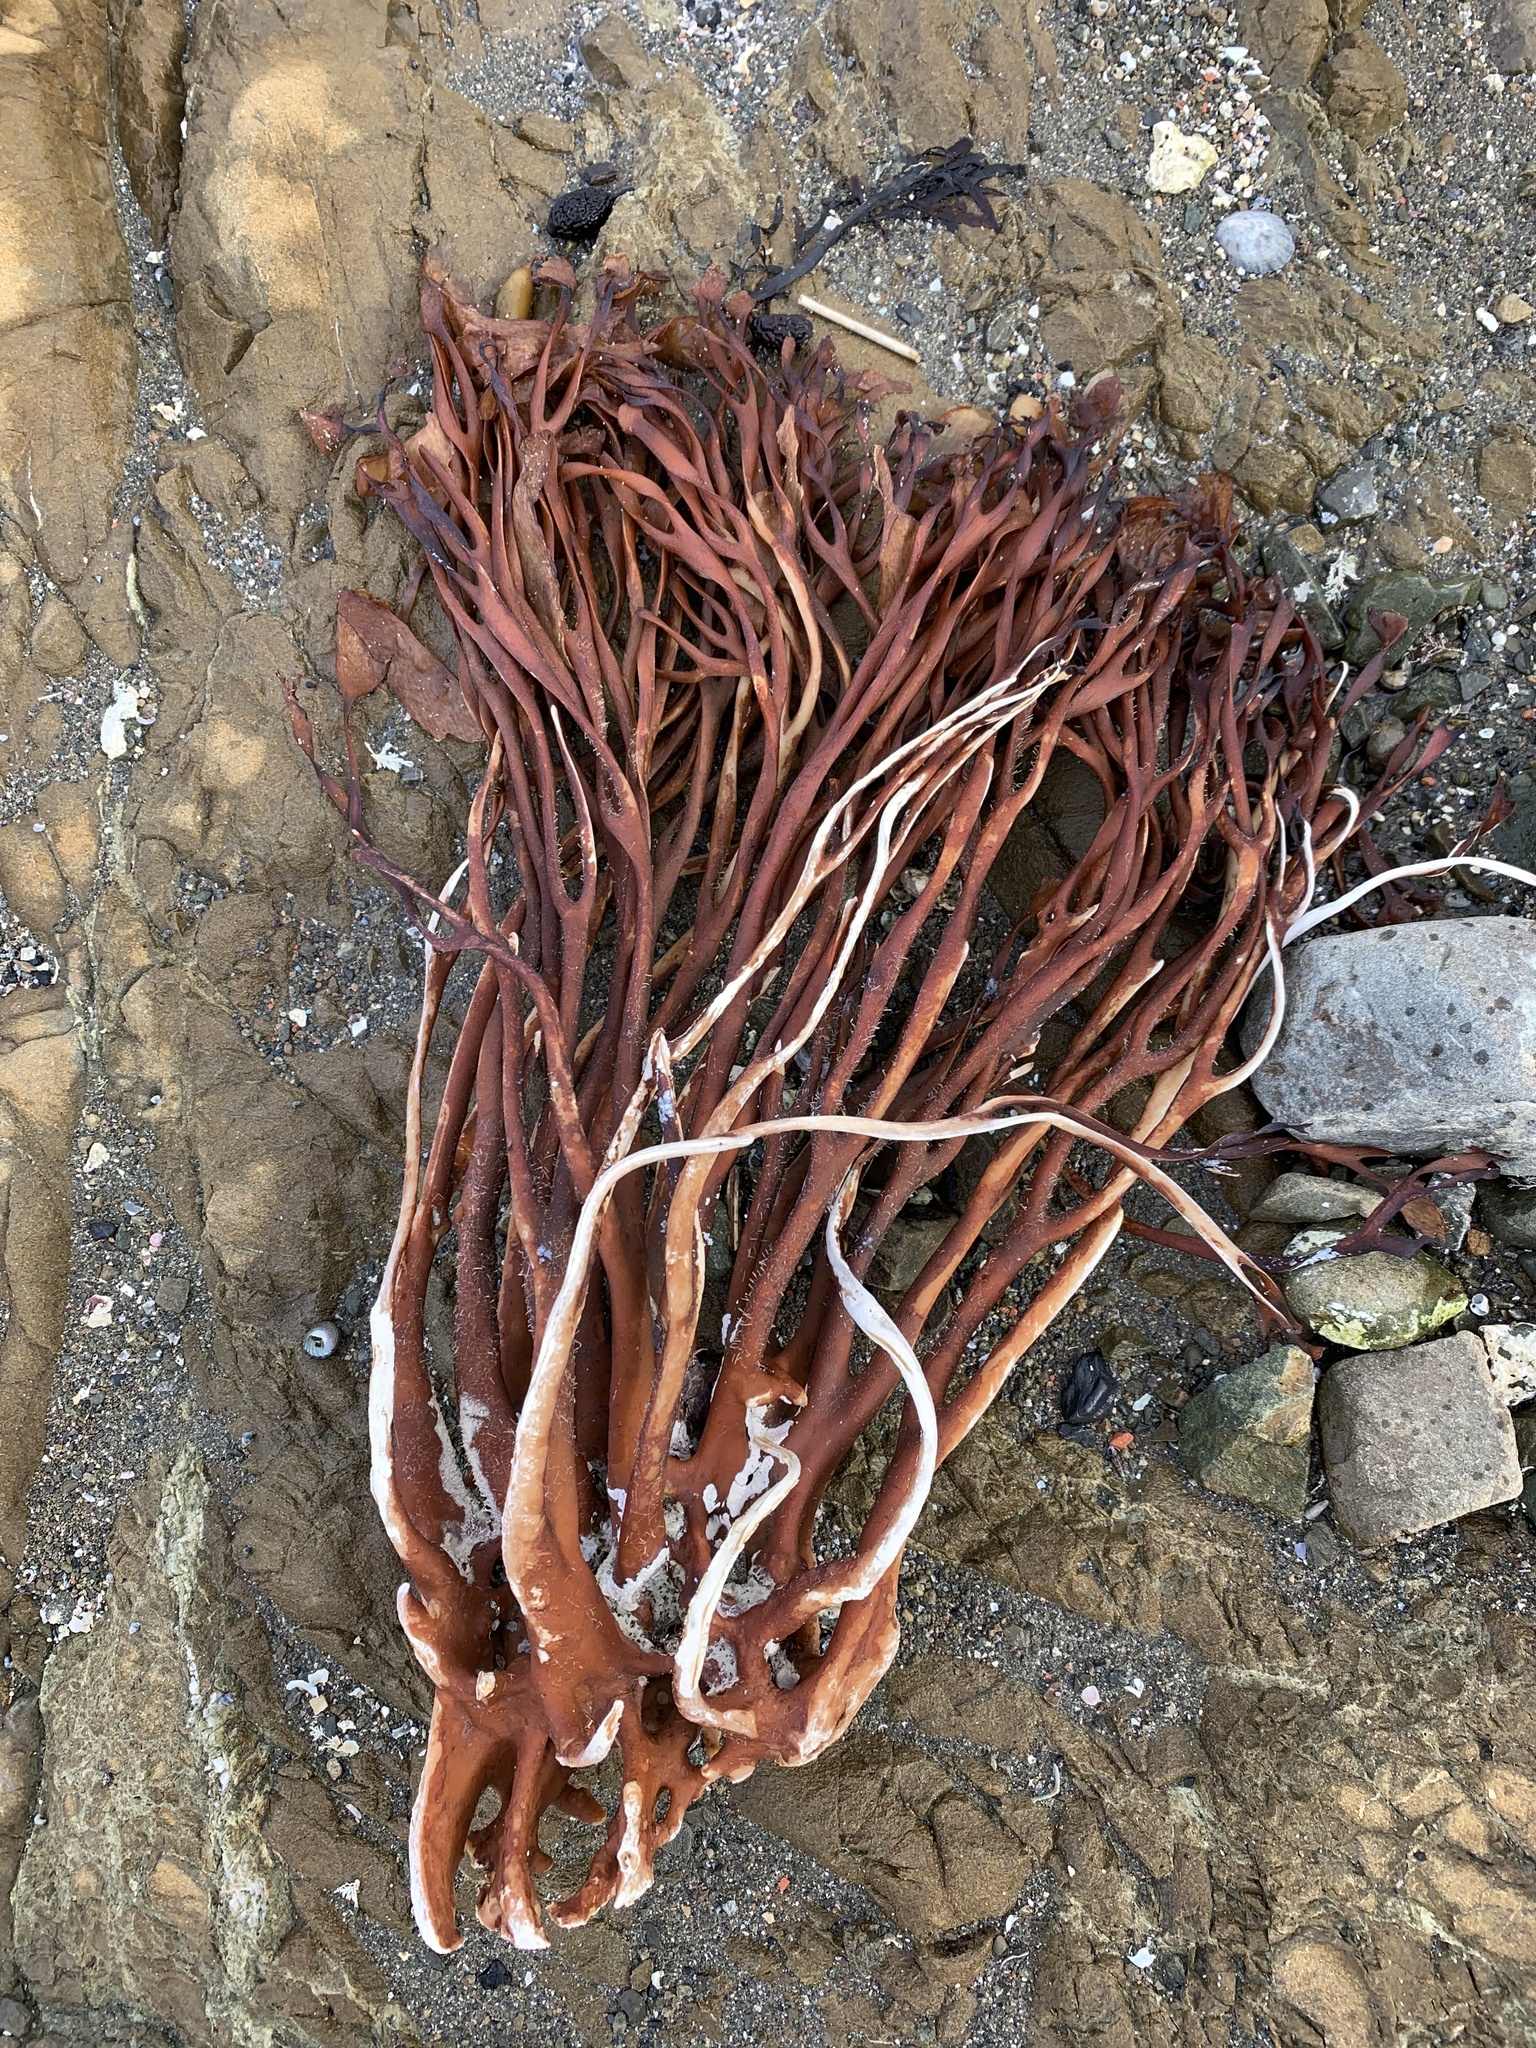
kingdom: Chromista
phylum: Ochrophyta
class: Phaeophyceae
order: Laminariales
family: Lessoniaceae
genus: Lessonia
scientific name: Lessonia variegata
